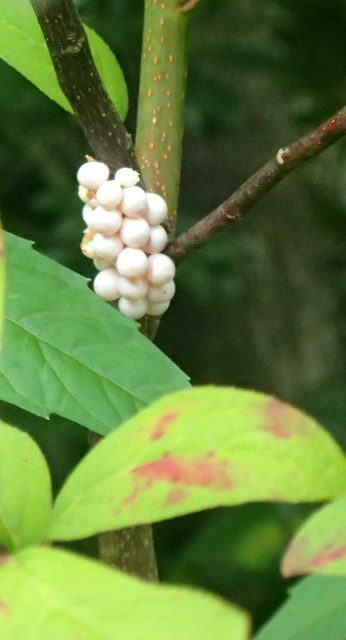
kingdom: Animalia
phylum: Mollusca
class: Gastropoda
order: Architaenioglossa
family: Ampullariidae
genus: Pomacea
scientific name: Pomacea paludosa
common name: Florida applesnail
